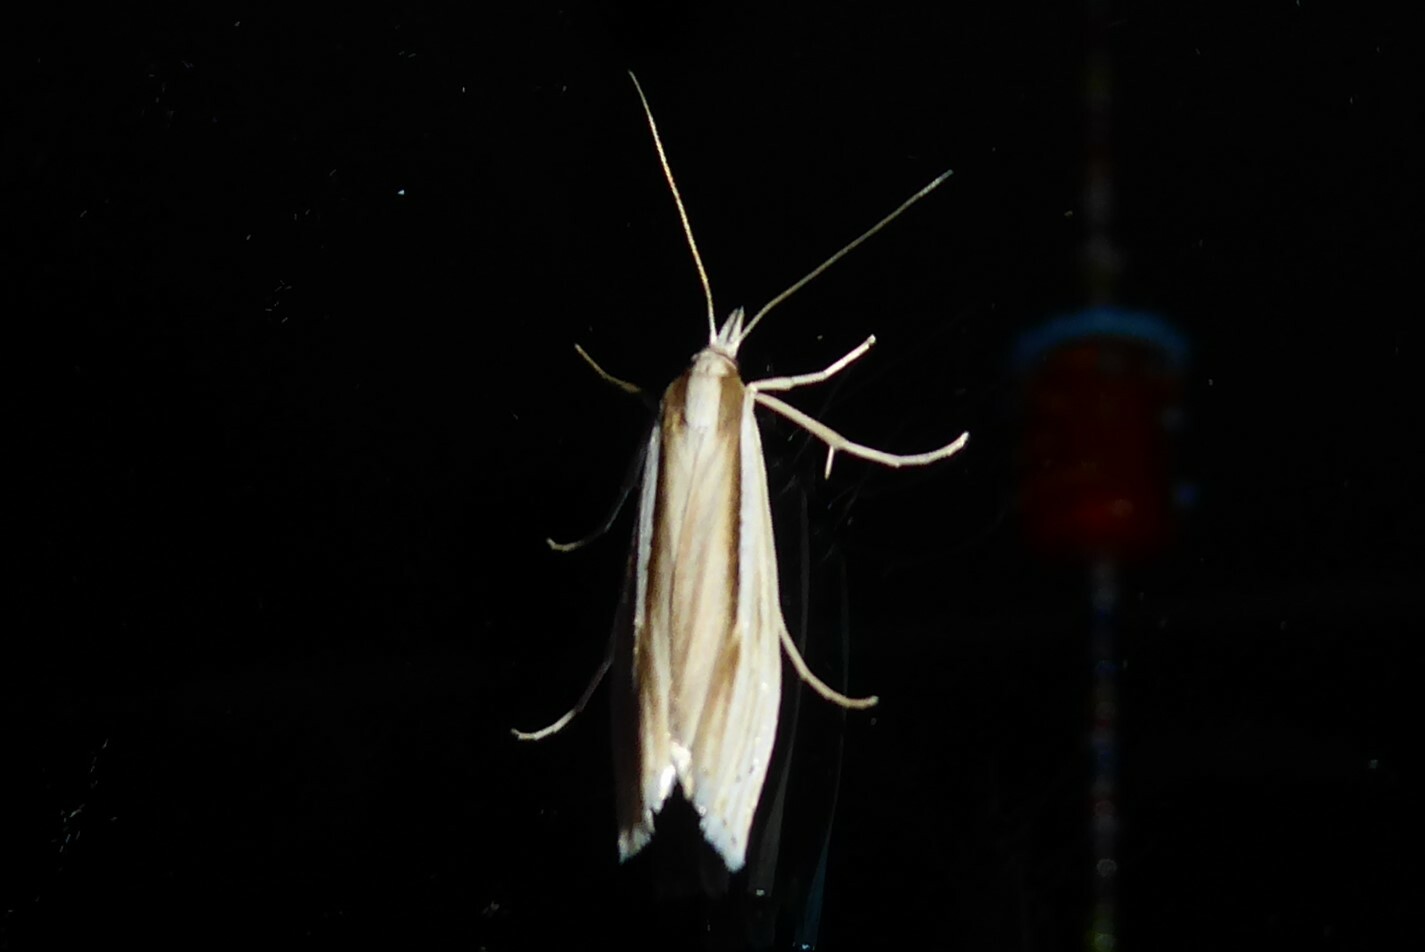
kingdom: Animalia
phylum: Arthropoda
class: Insecta
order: Lepidoptera
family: Crambidae
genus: Orocrambus
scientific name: Orocrambus ramosellus
